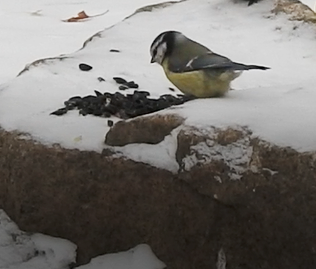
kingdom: Animalia
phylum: Chordata
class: Aves
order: Passeriformes
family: Paridae
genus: Cyanistes
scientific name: Cyanistes caeruleus
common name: Eurasian blue tit
